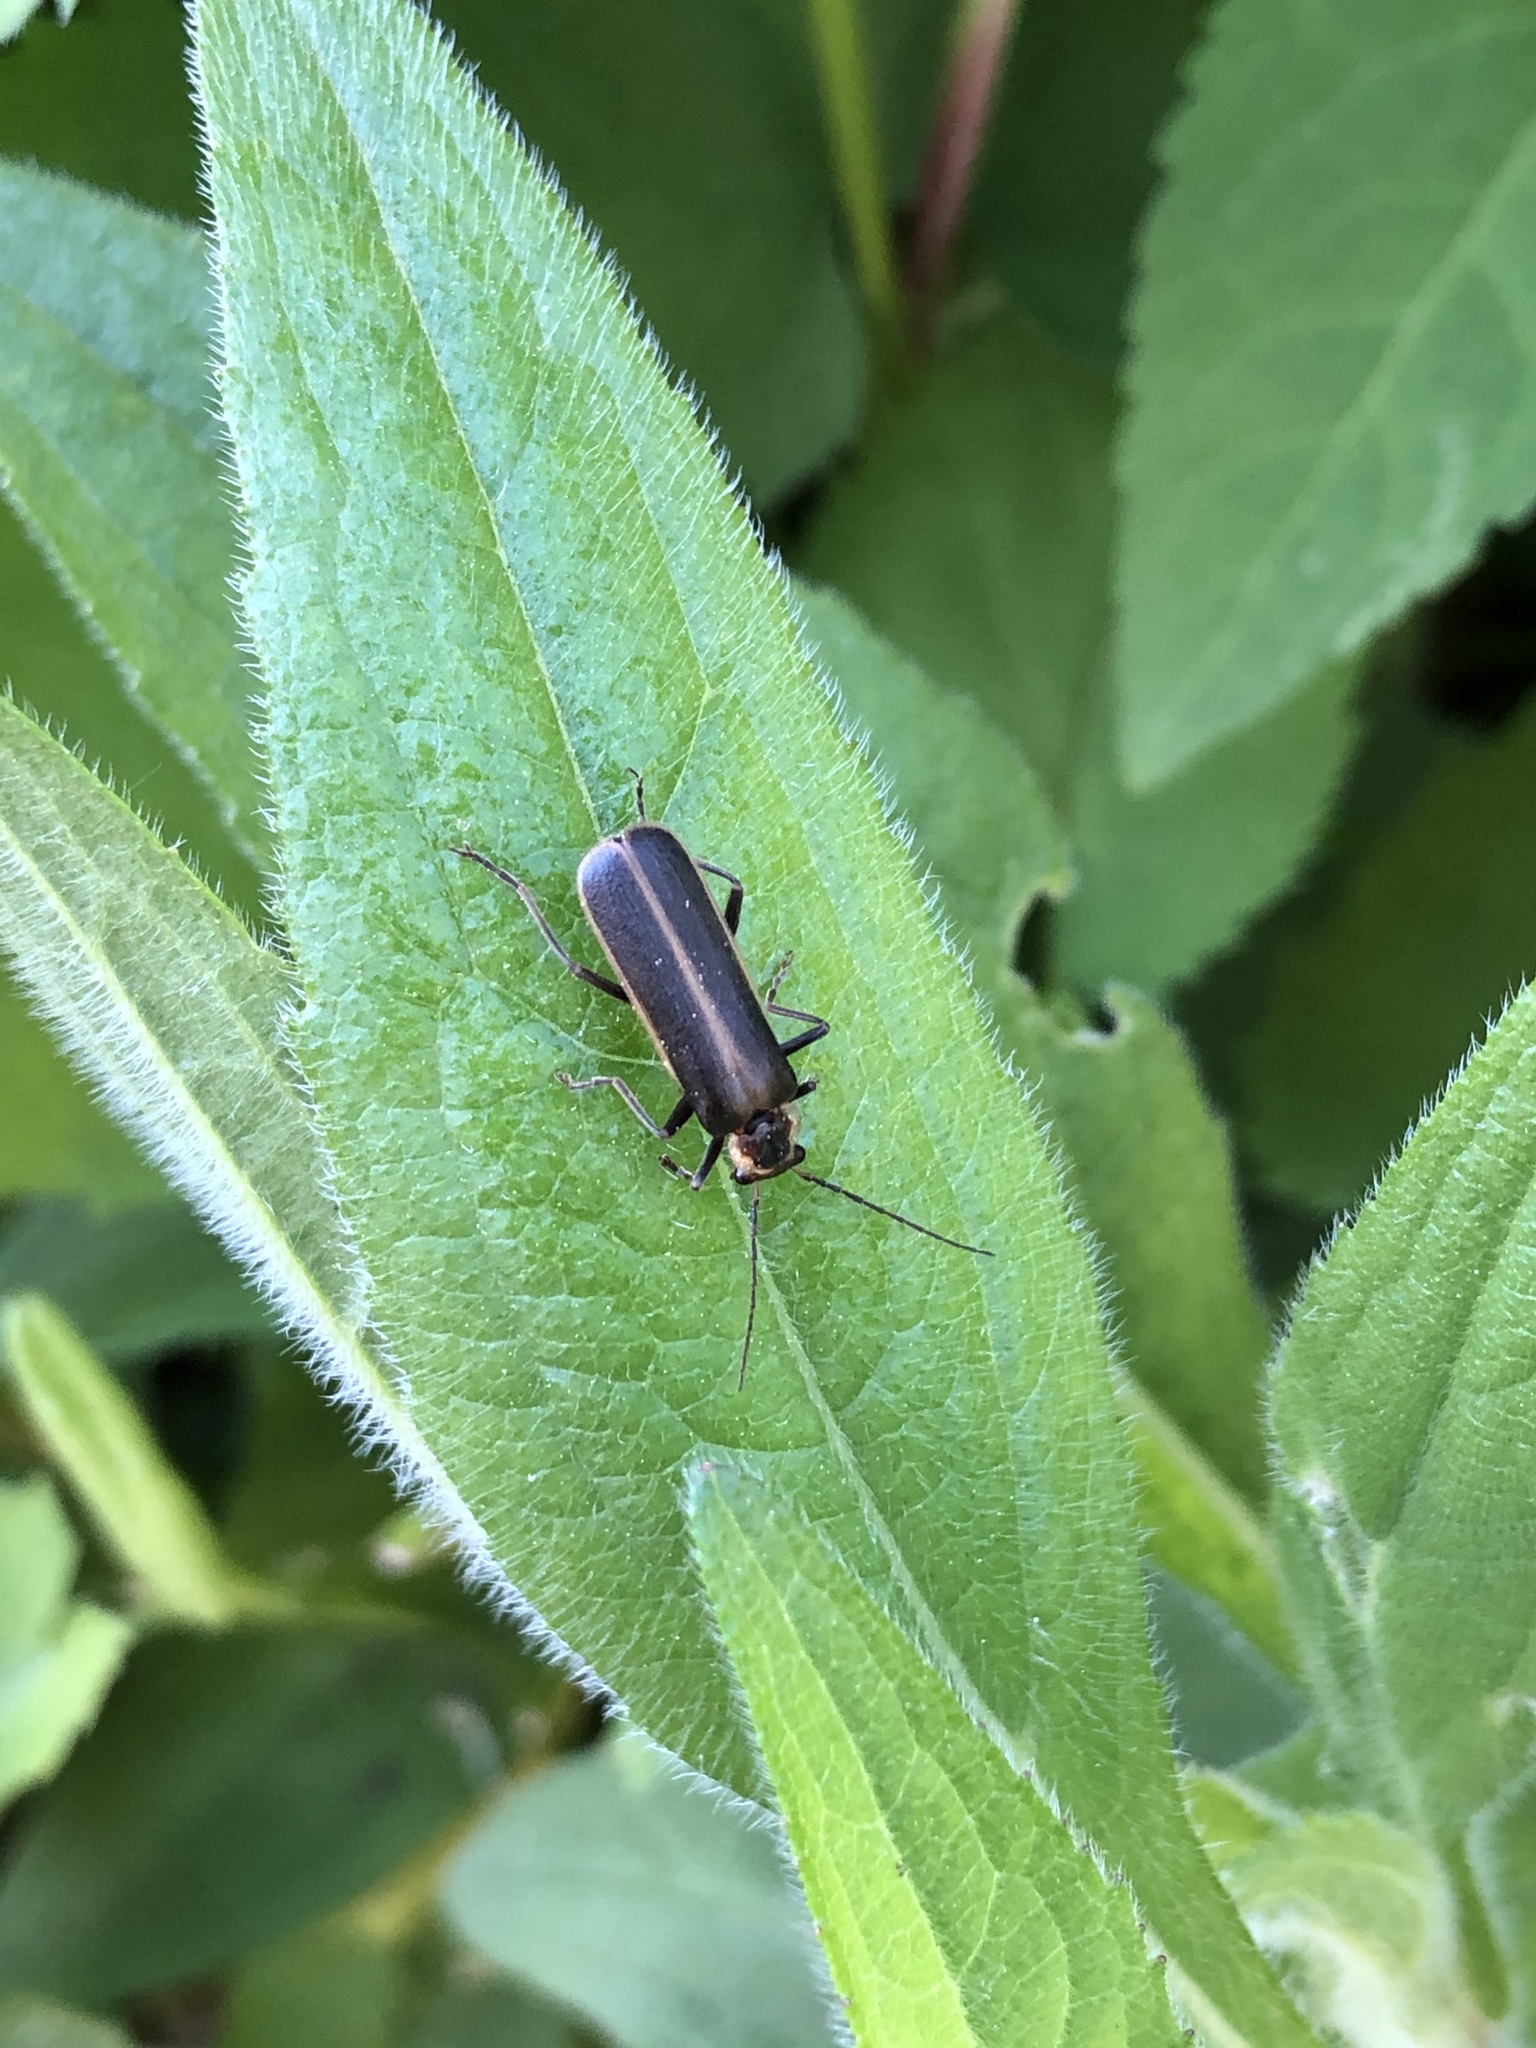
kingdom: Animalia
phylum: Arthropoda
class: Insecta
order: Coleoptera
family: Cantharidae
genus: Podabrus
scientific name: Podabrus modestus
